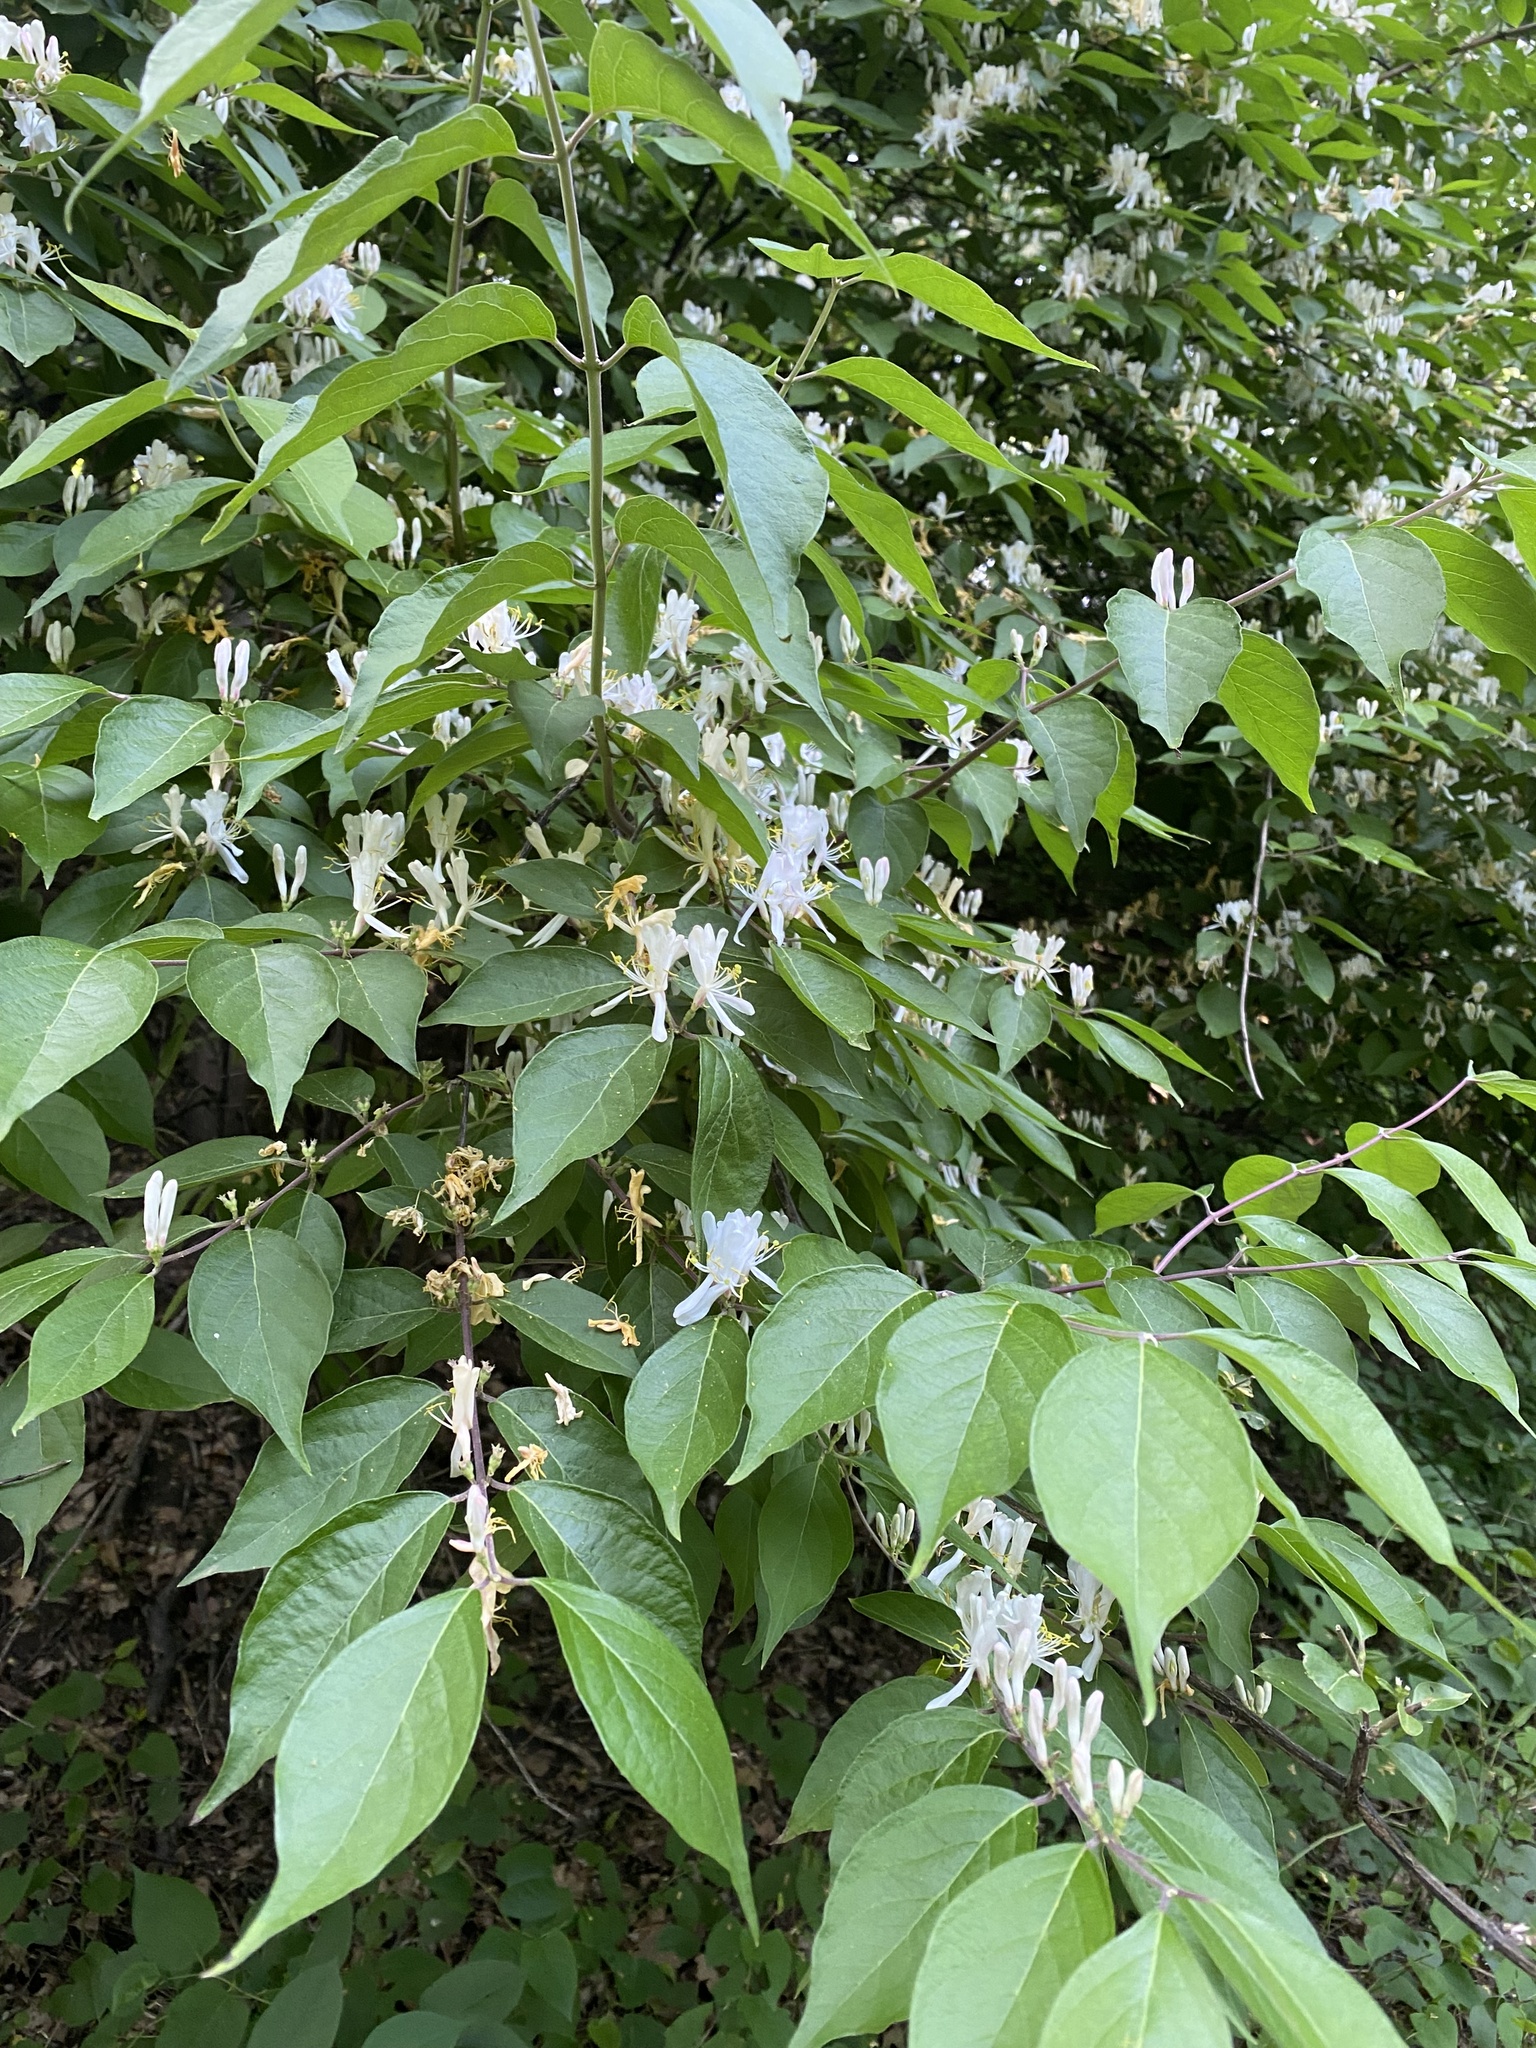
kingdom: Plantae
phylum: Tracheophyta
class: Magnoliopsida
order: Dipsacales
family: Caprifoliaceae
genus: Lonicera
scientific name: Lonicera maackii
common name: Amur honeysuckle
